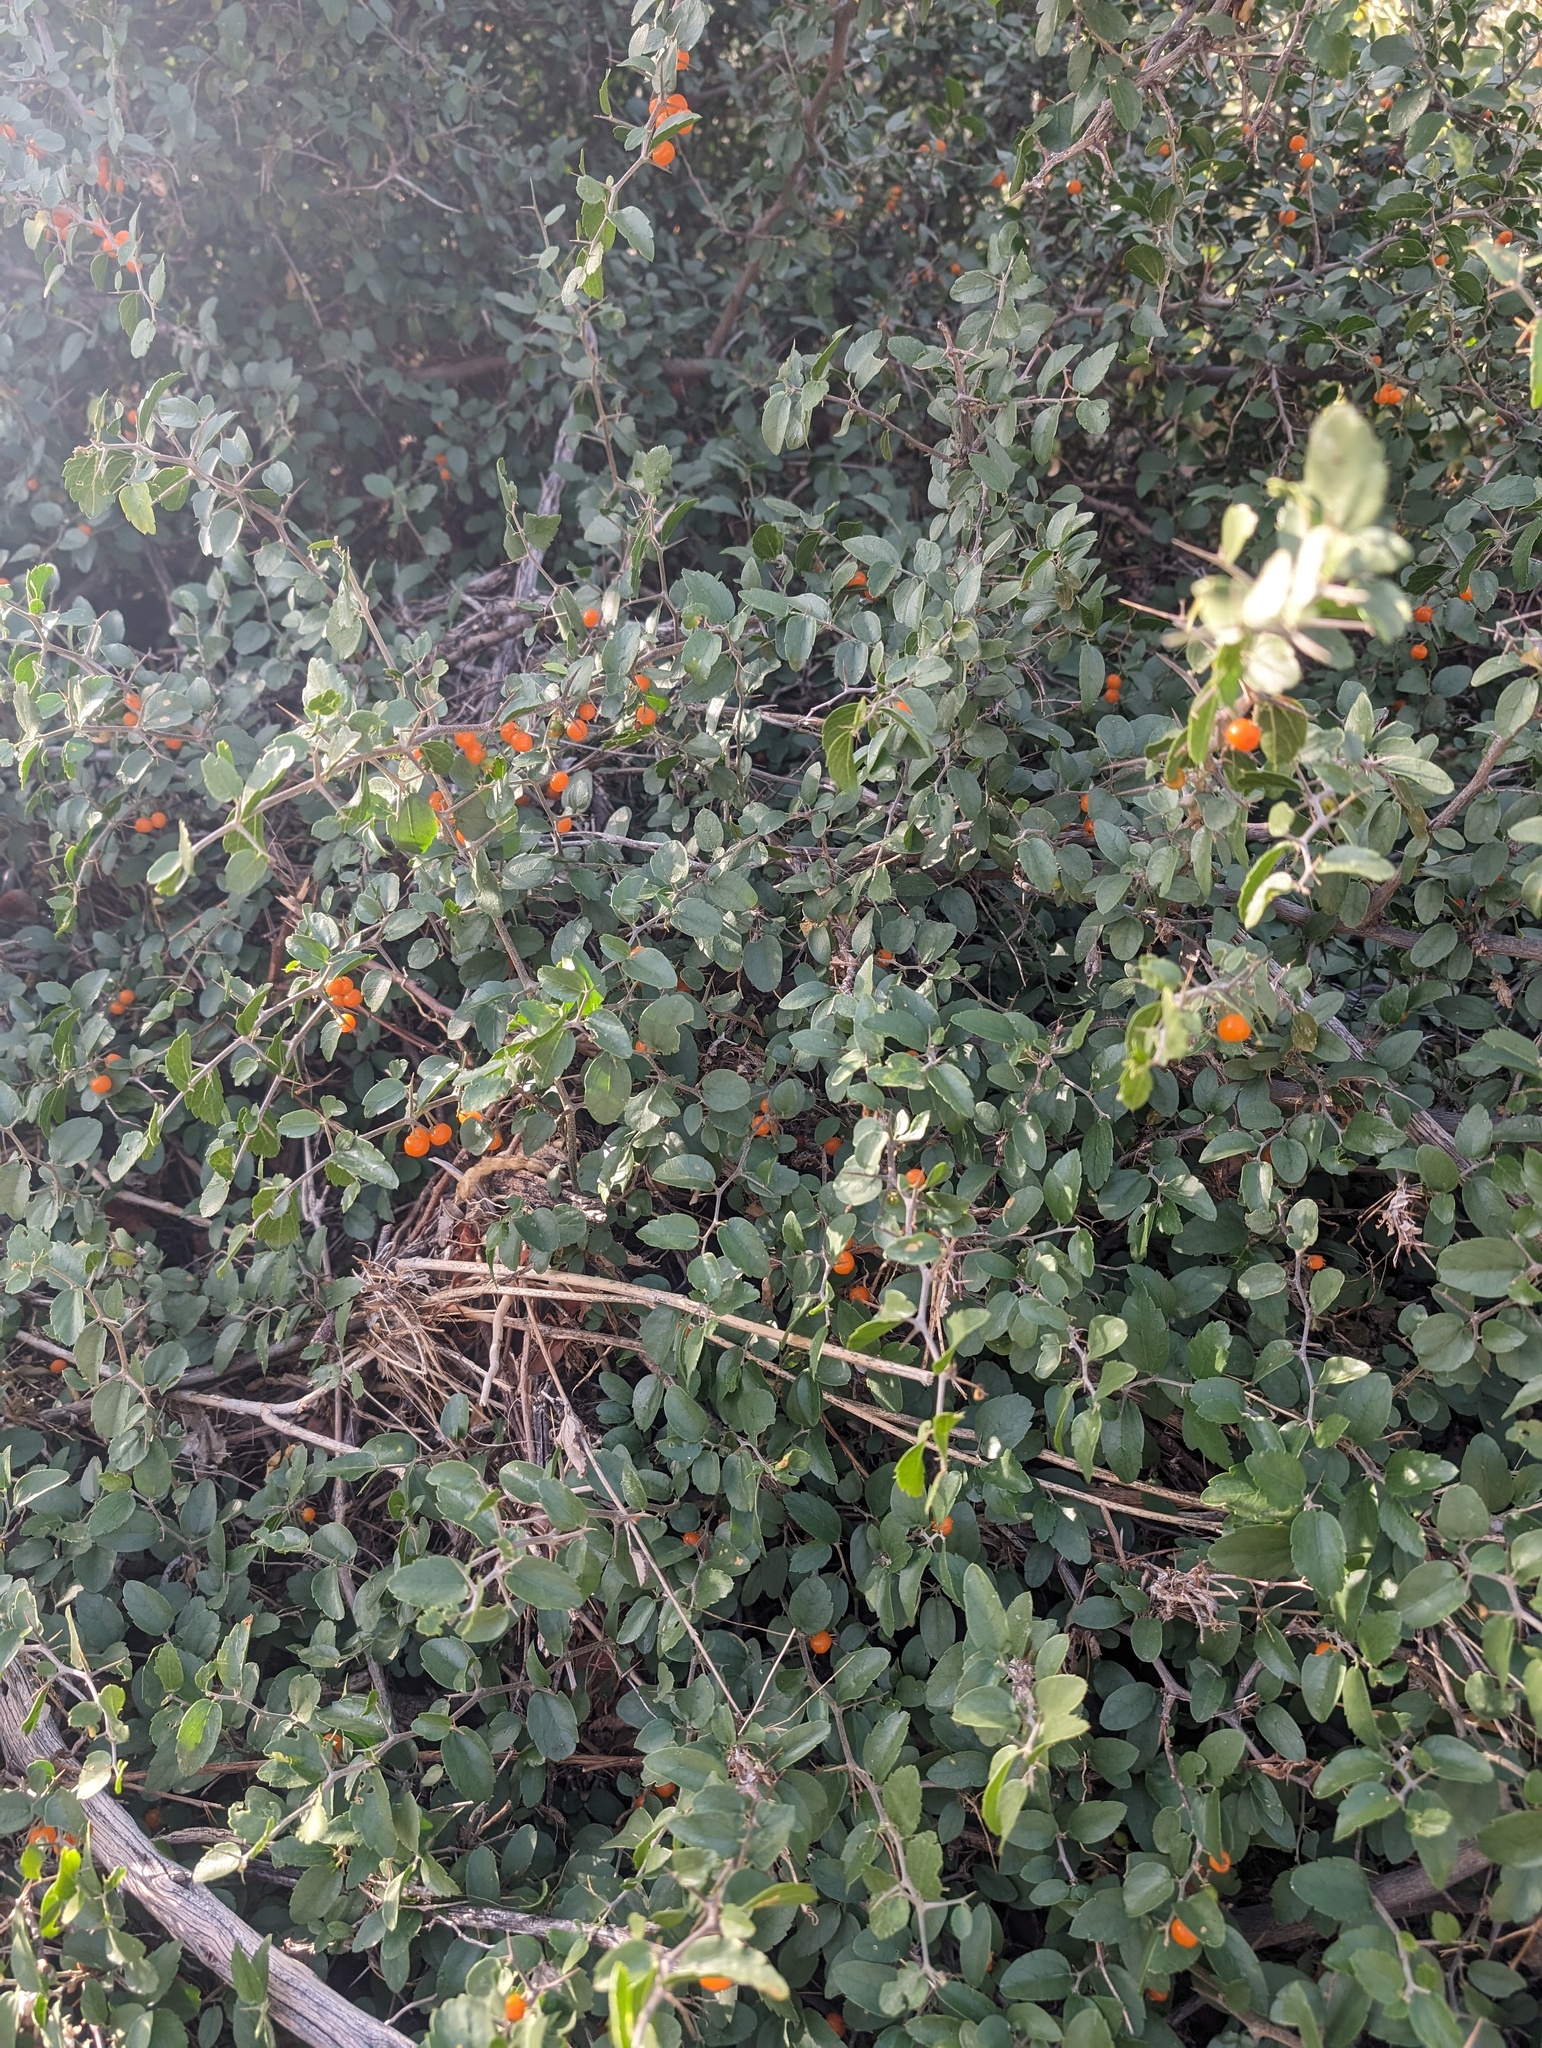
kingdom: Plantae
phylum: Tracheophyta
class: Magnoliopsida
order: Rosales
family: Cannabaceae
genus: Celtis
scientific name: Celtis pallida
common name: Desert hackberry
